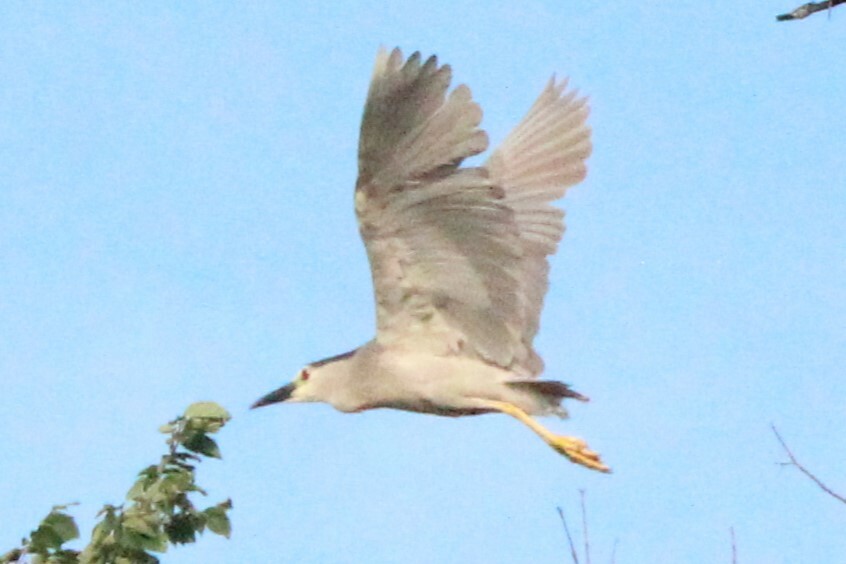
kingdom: Animalia
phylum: Chordata
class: Aves
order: Pelecaniformes
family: Ardeidae
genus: Nycticorax
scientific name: Nycticorax nycticorax
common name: Black-crowned night heron
